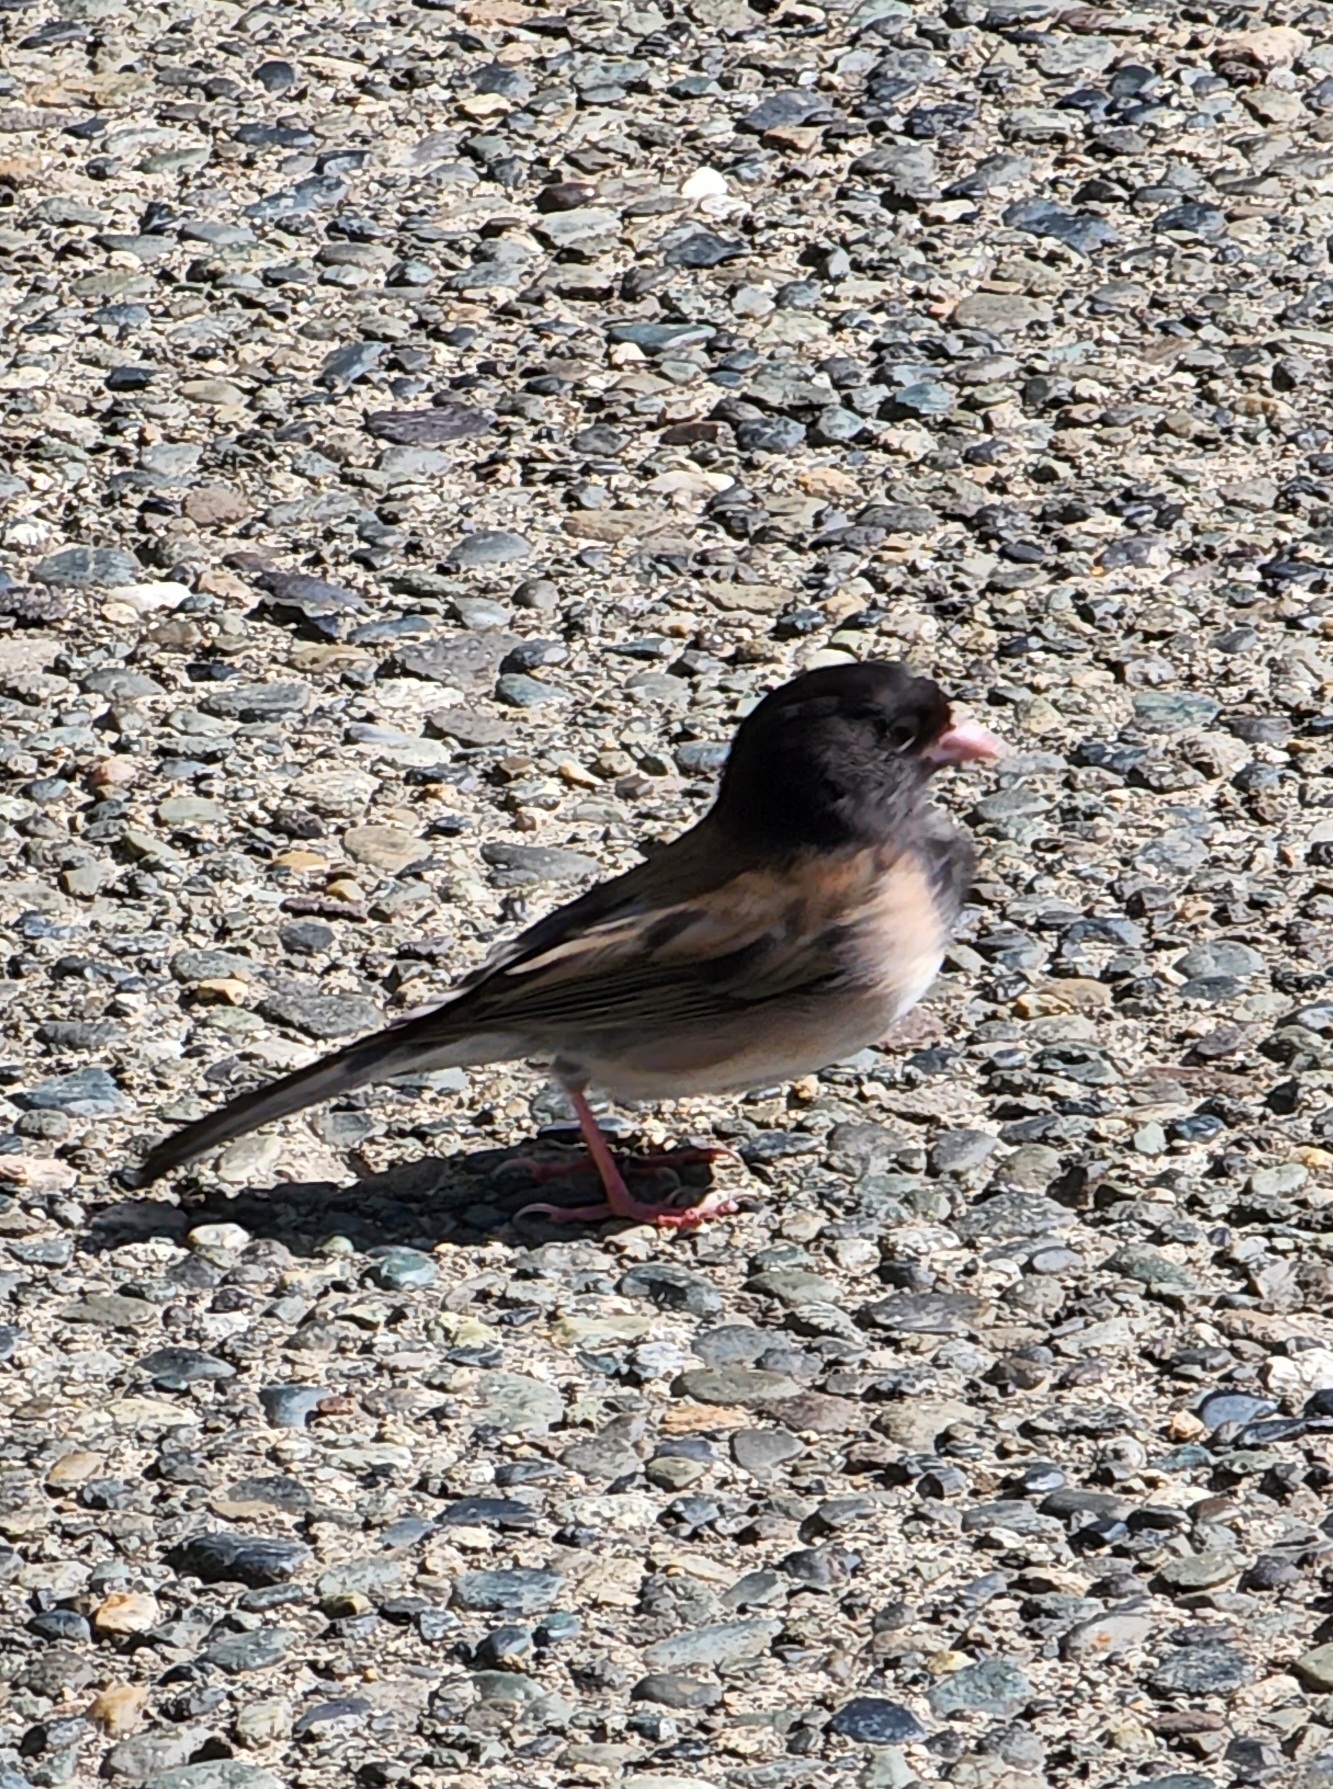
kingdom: Animalia
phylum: Chordata
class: Aves
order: Passeriformes
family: Passerellidae
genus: Junco
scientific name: Junco hyemalis
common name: Dark-eyed junco
